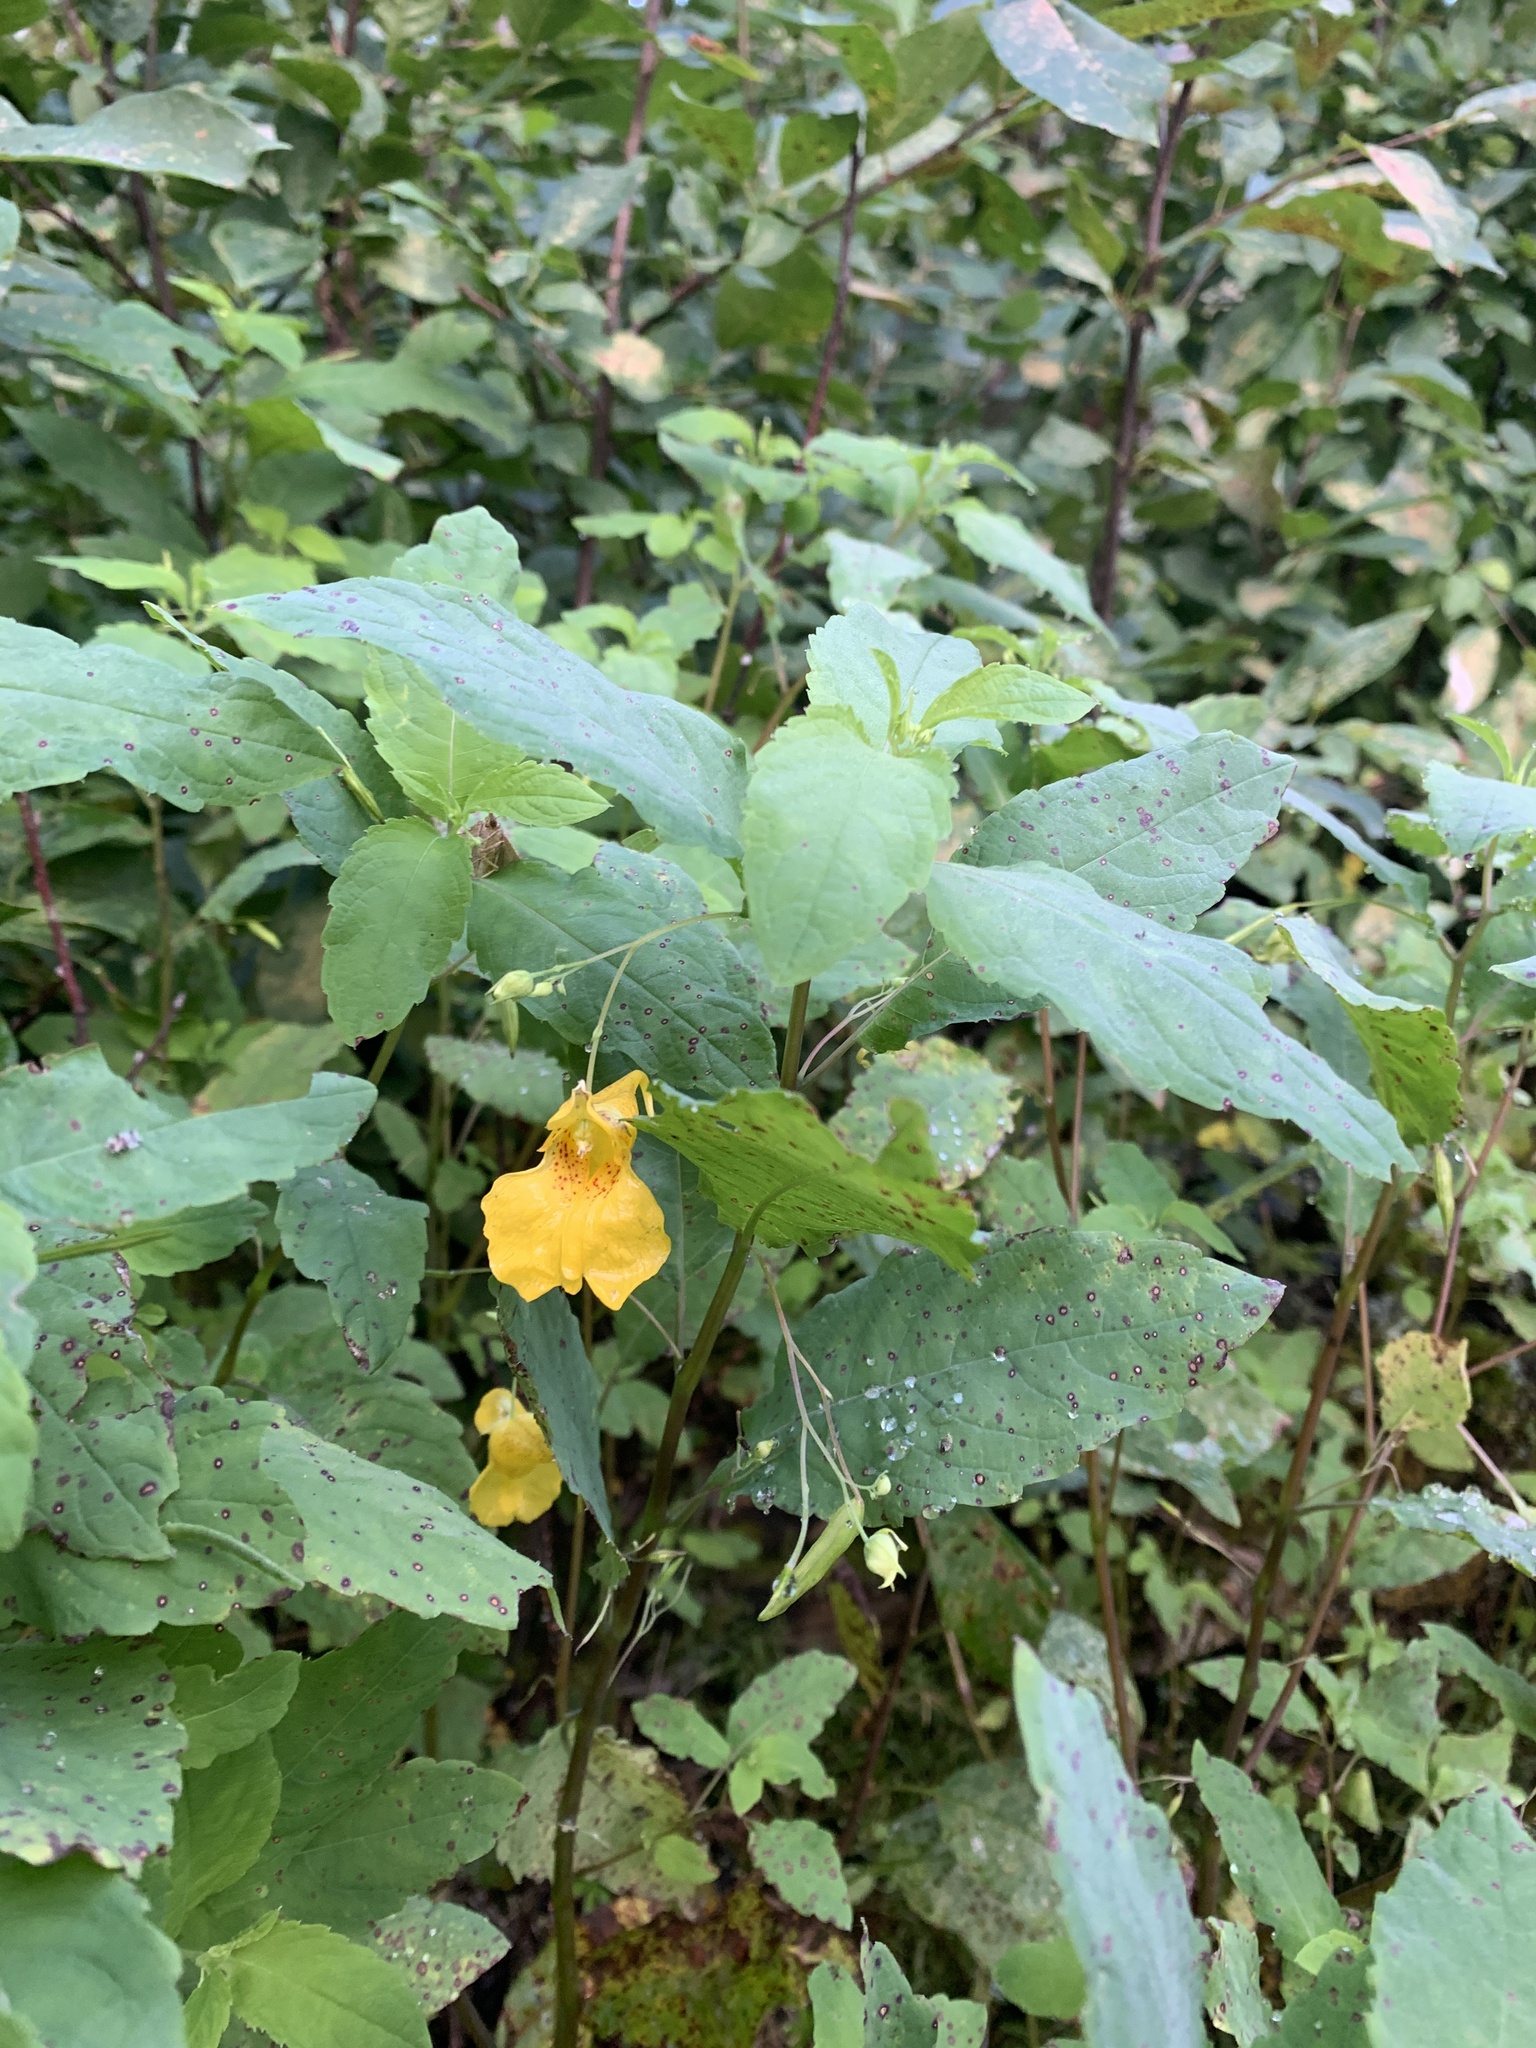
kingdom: Plantae
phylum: Tracheophyta
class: Magnoliopsida
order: Ericales
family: Balsaminaceae
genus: Impatiens
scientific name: Impatiens noli-tangere
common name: Touch-me-not balsam
